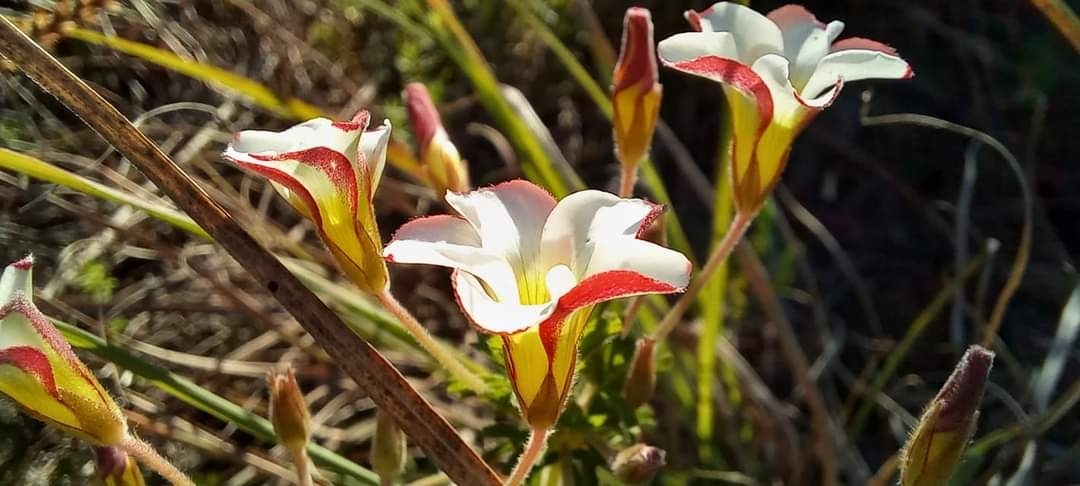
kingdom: Plantae
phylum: Tracheophyta
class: Magnoliopsida
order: Oxalidales
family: Oxalidaceae
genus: Oxalis
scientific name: Oxalis tenuifolia
